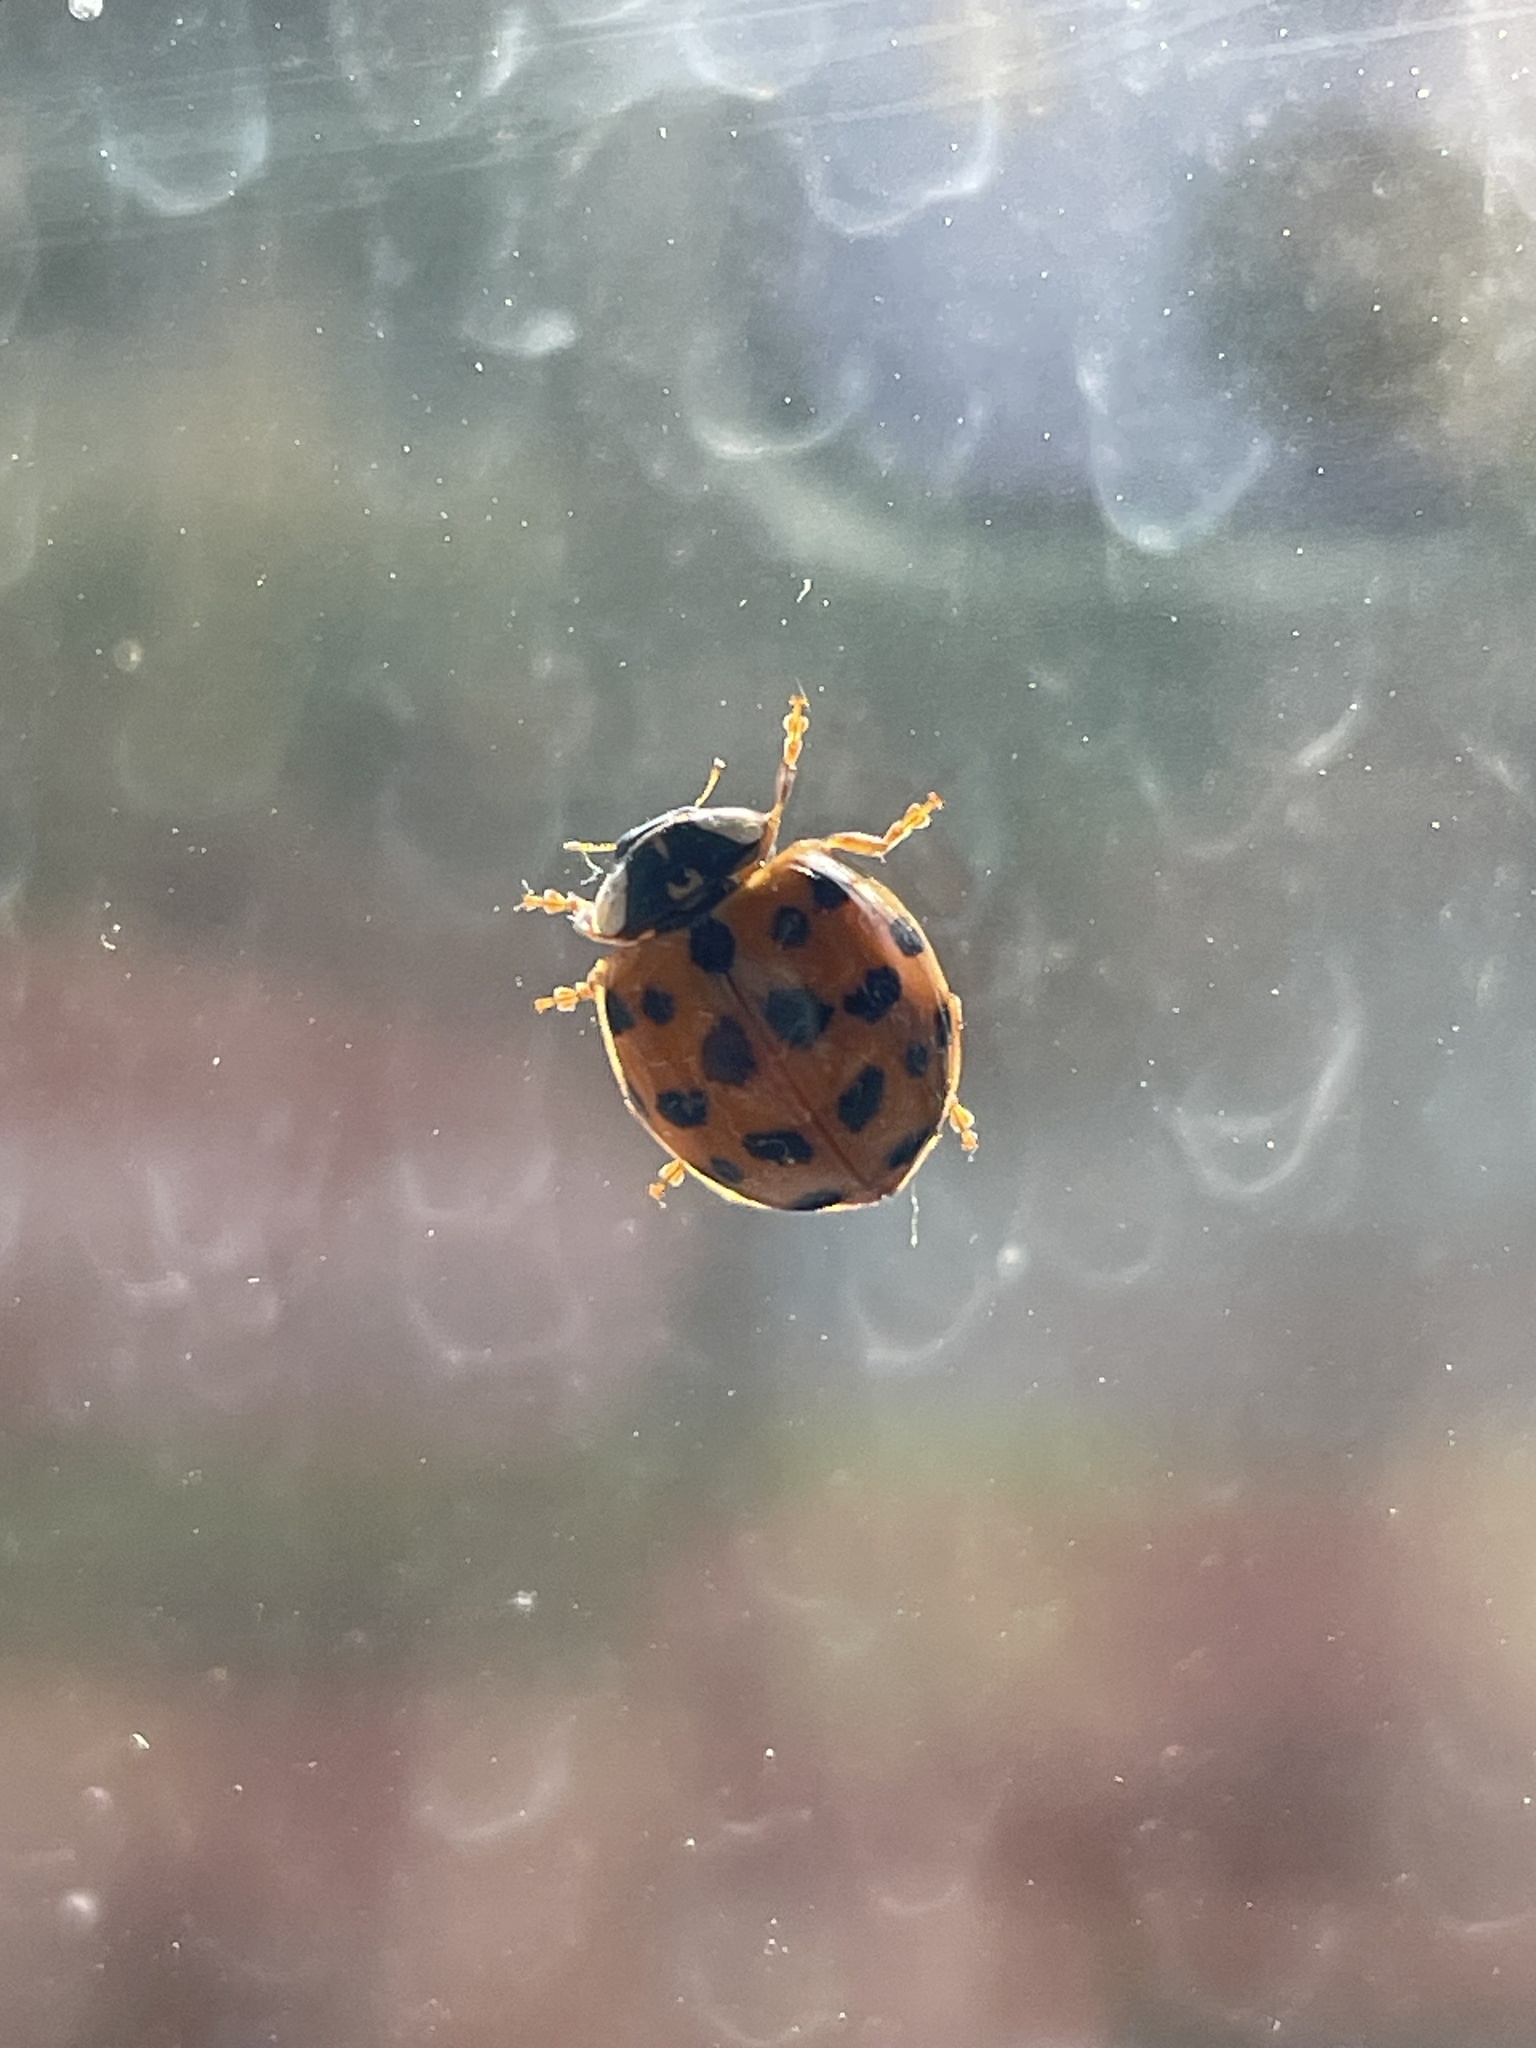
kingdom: Animalia
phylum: Arthropoda
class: Insecta
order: Coleoptera
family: Coccinellidae
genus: Harmonia
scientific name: Harmonia axyridis
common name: Harlequin ladybird
